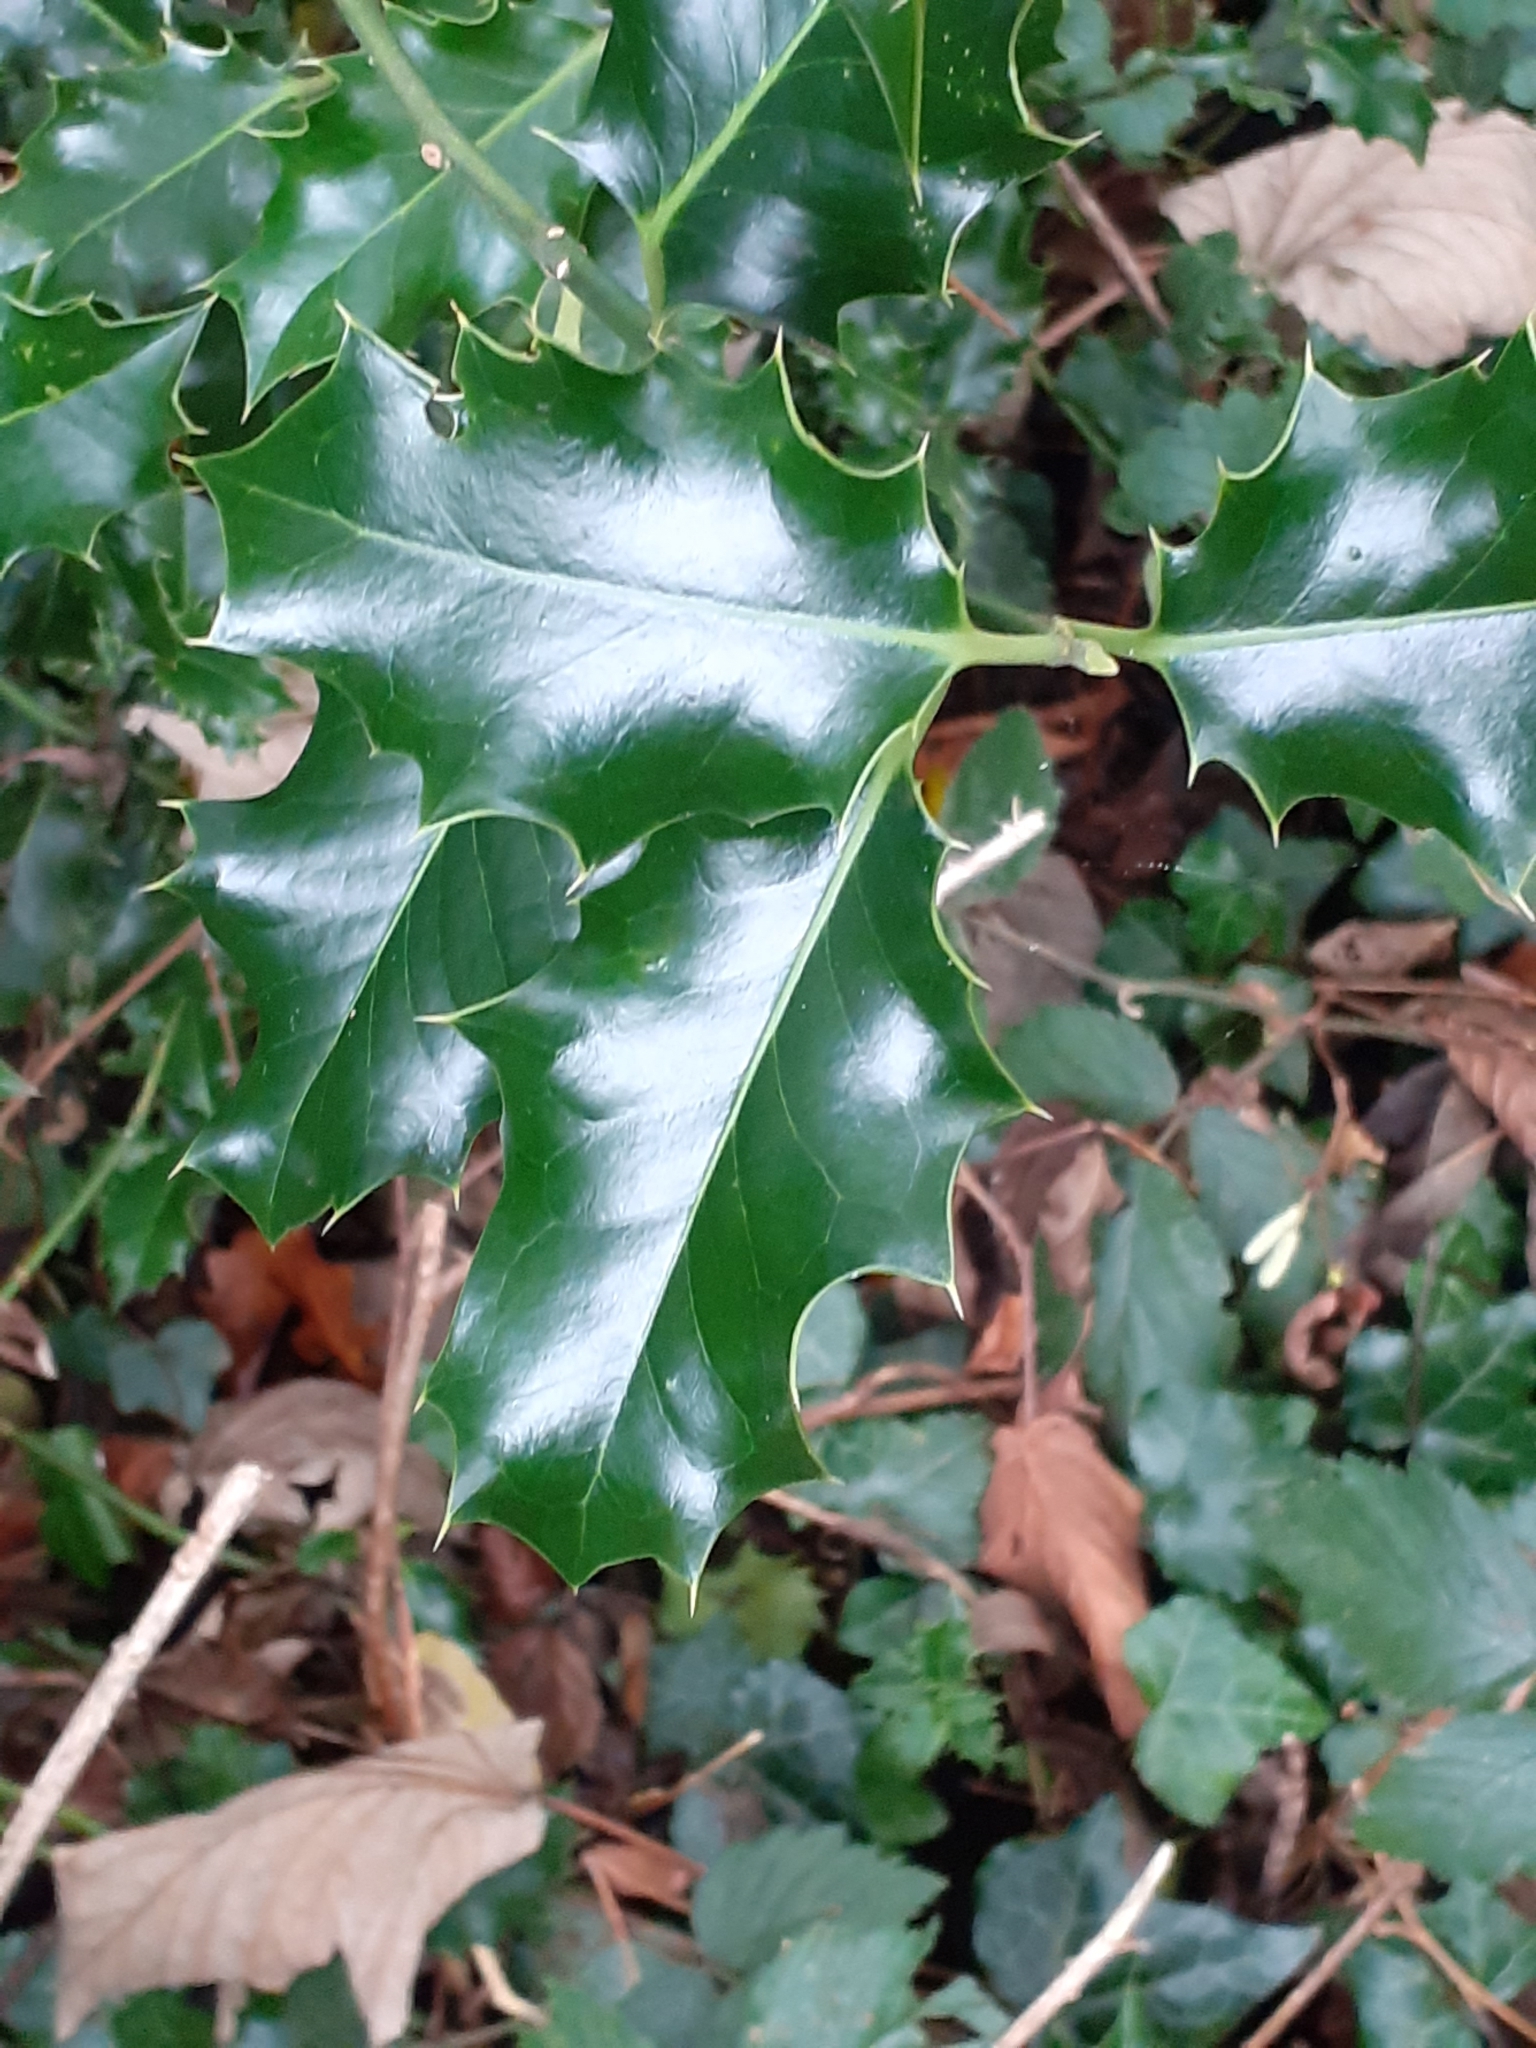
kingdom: Plantae
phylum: Tracheophyta
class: Magnoliopsida
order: Aquifoliales
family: Aquifoliaceae
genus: Ilex
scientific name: Ilex aquifolium
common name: English holly
